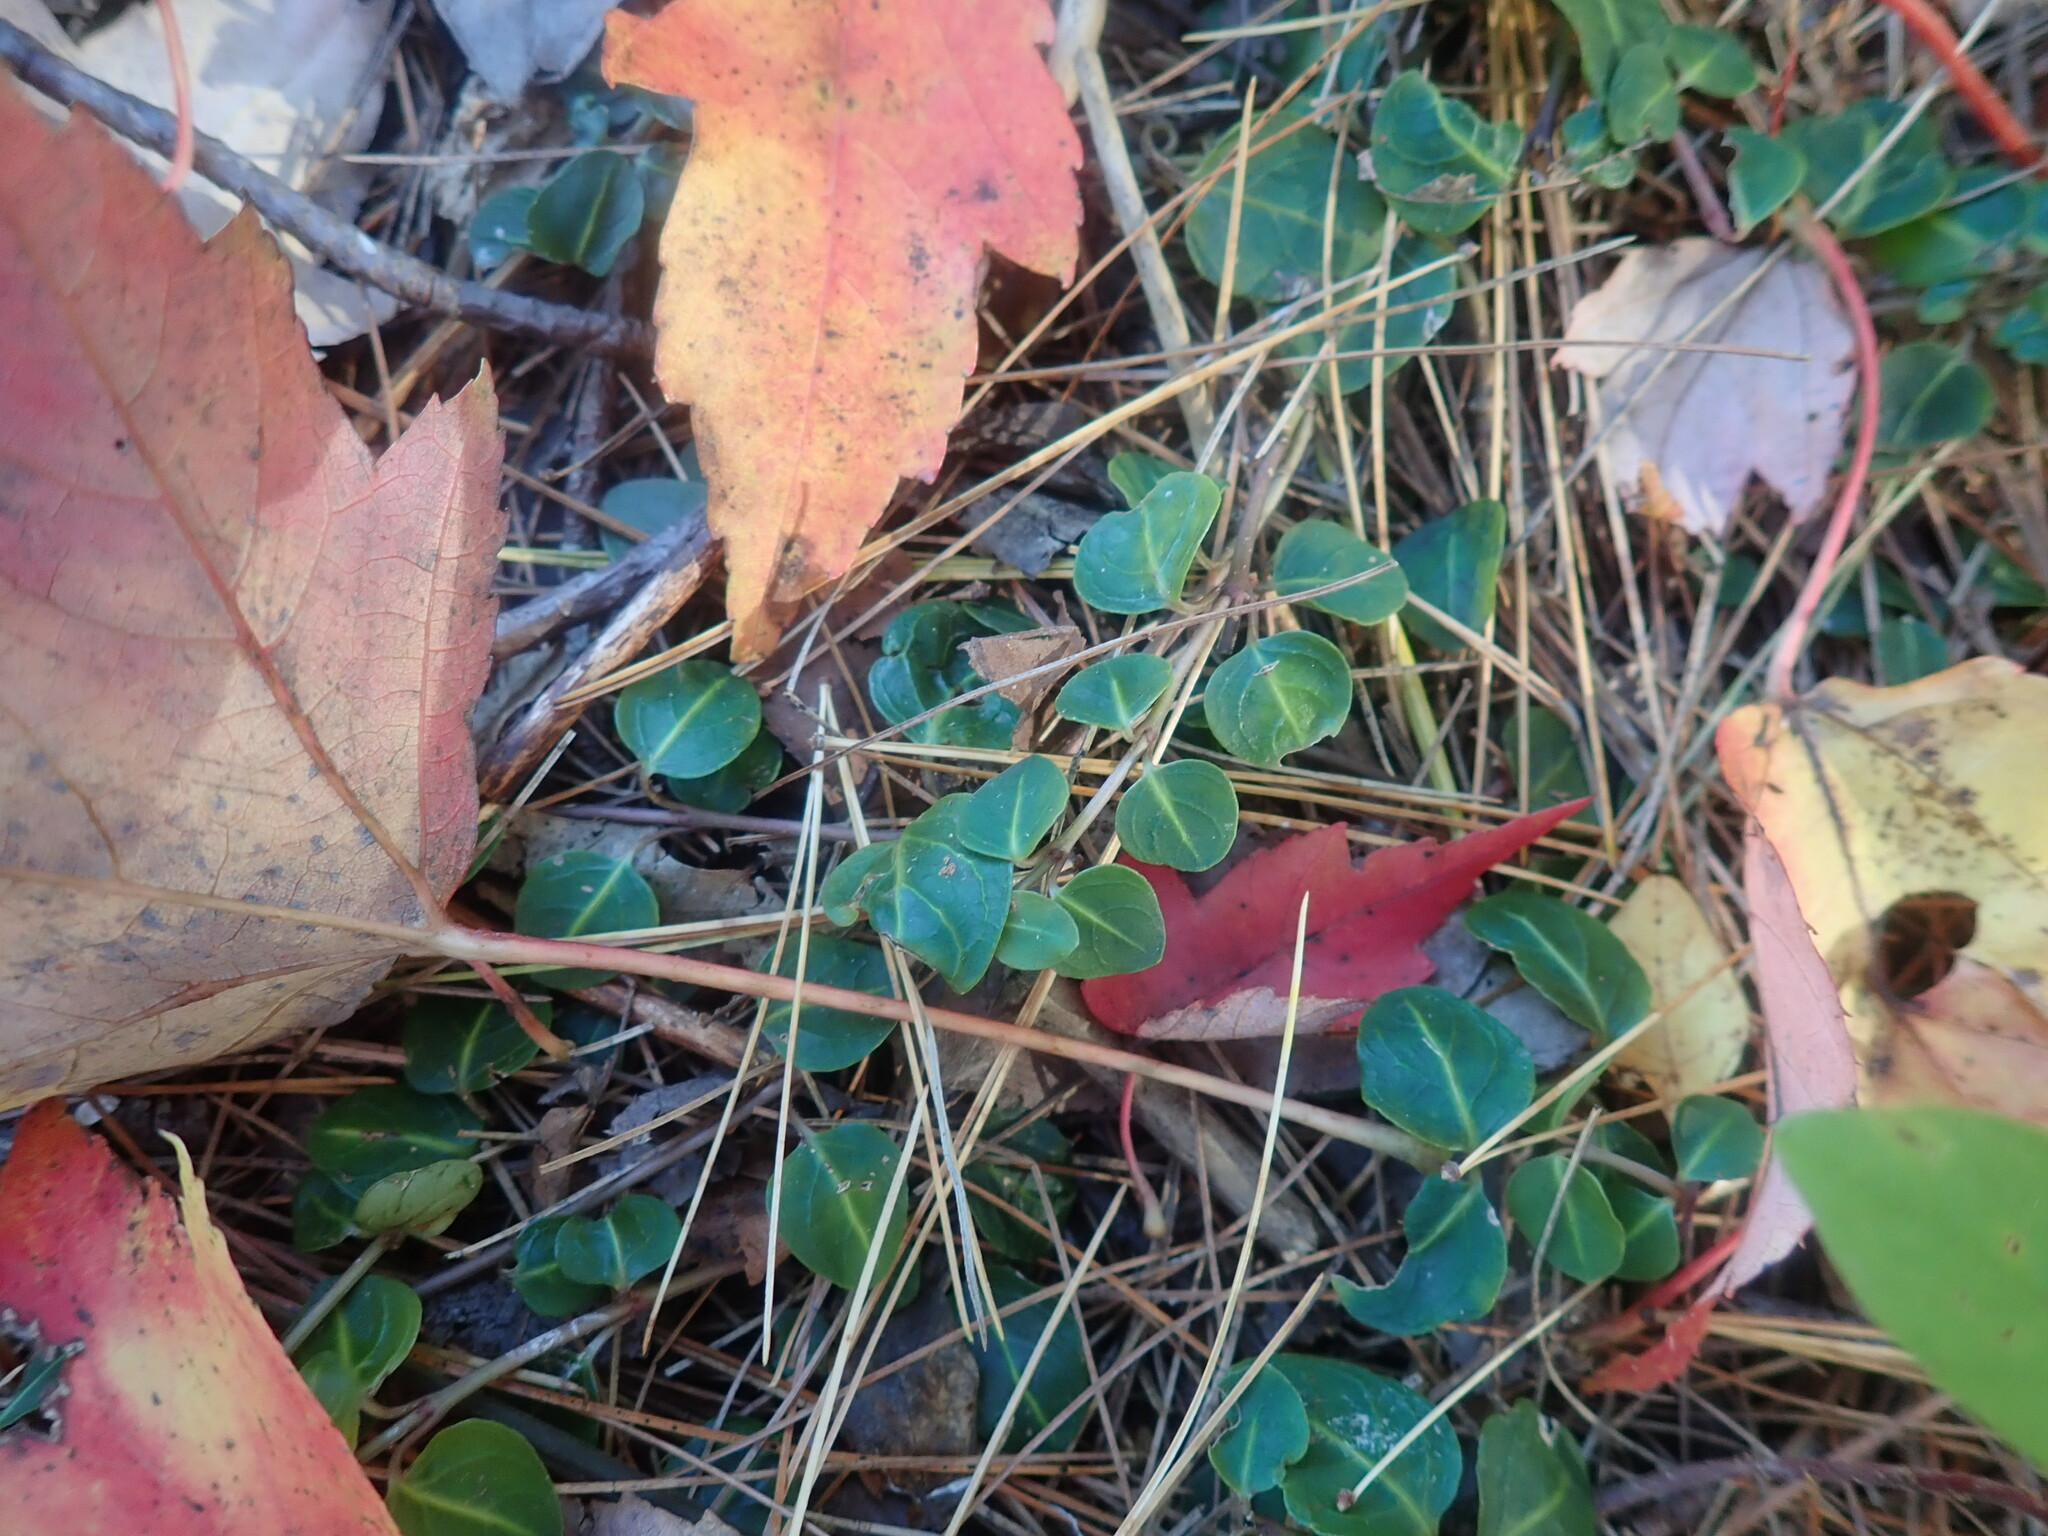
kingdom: Plantae
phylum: Tracheophyta
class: Magnoliopsida
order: Gentianales
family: Rubiaceae
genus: Mitchella
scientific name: Mitchella repens
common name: Partridge-berry
